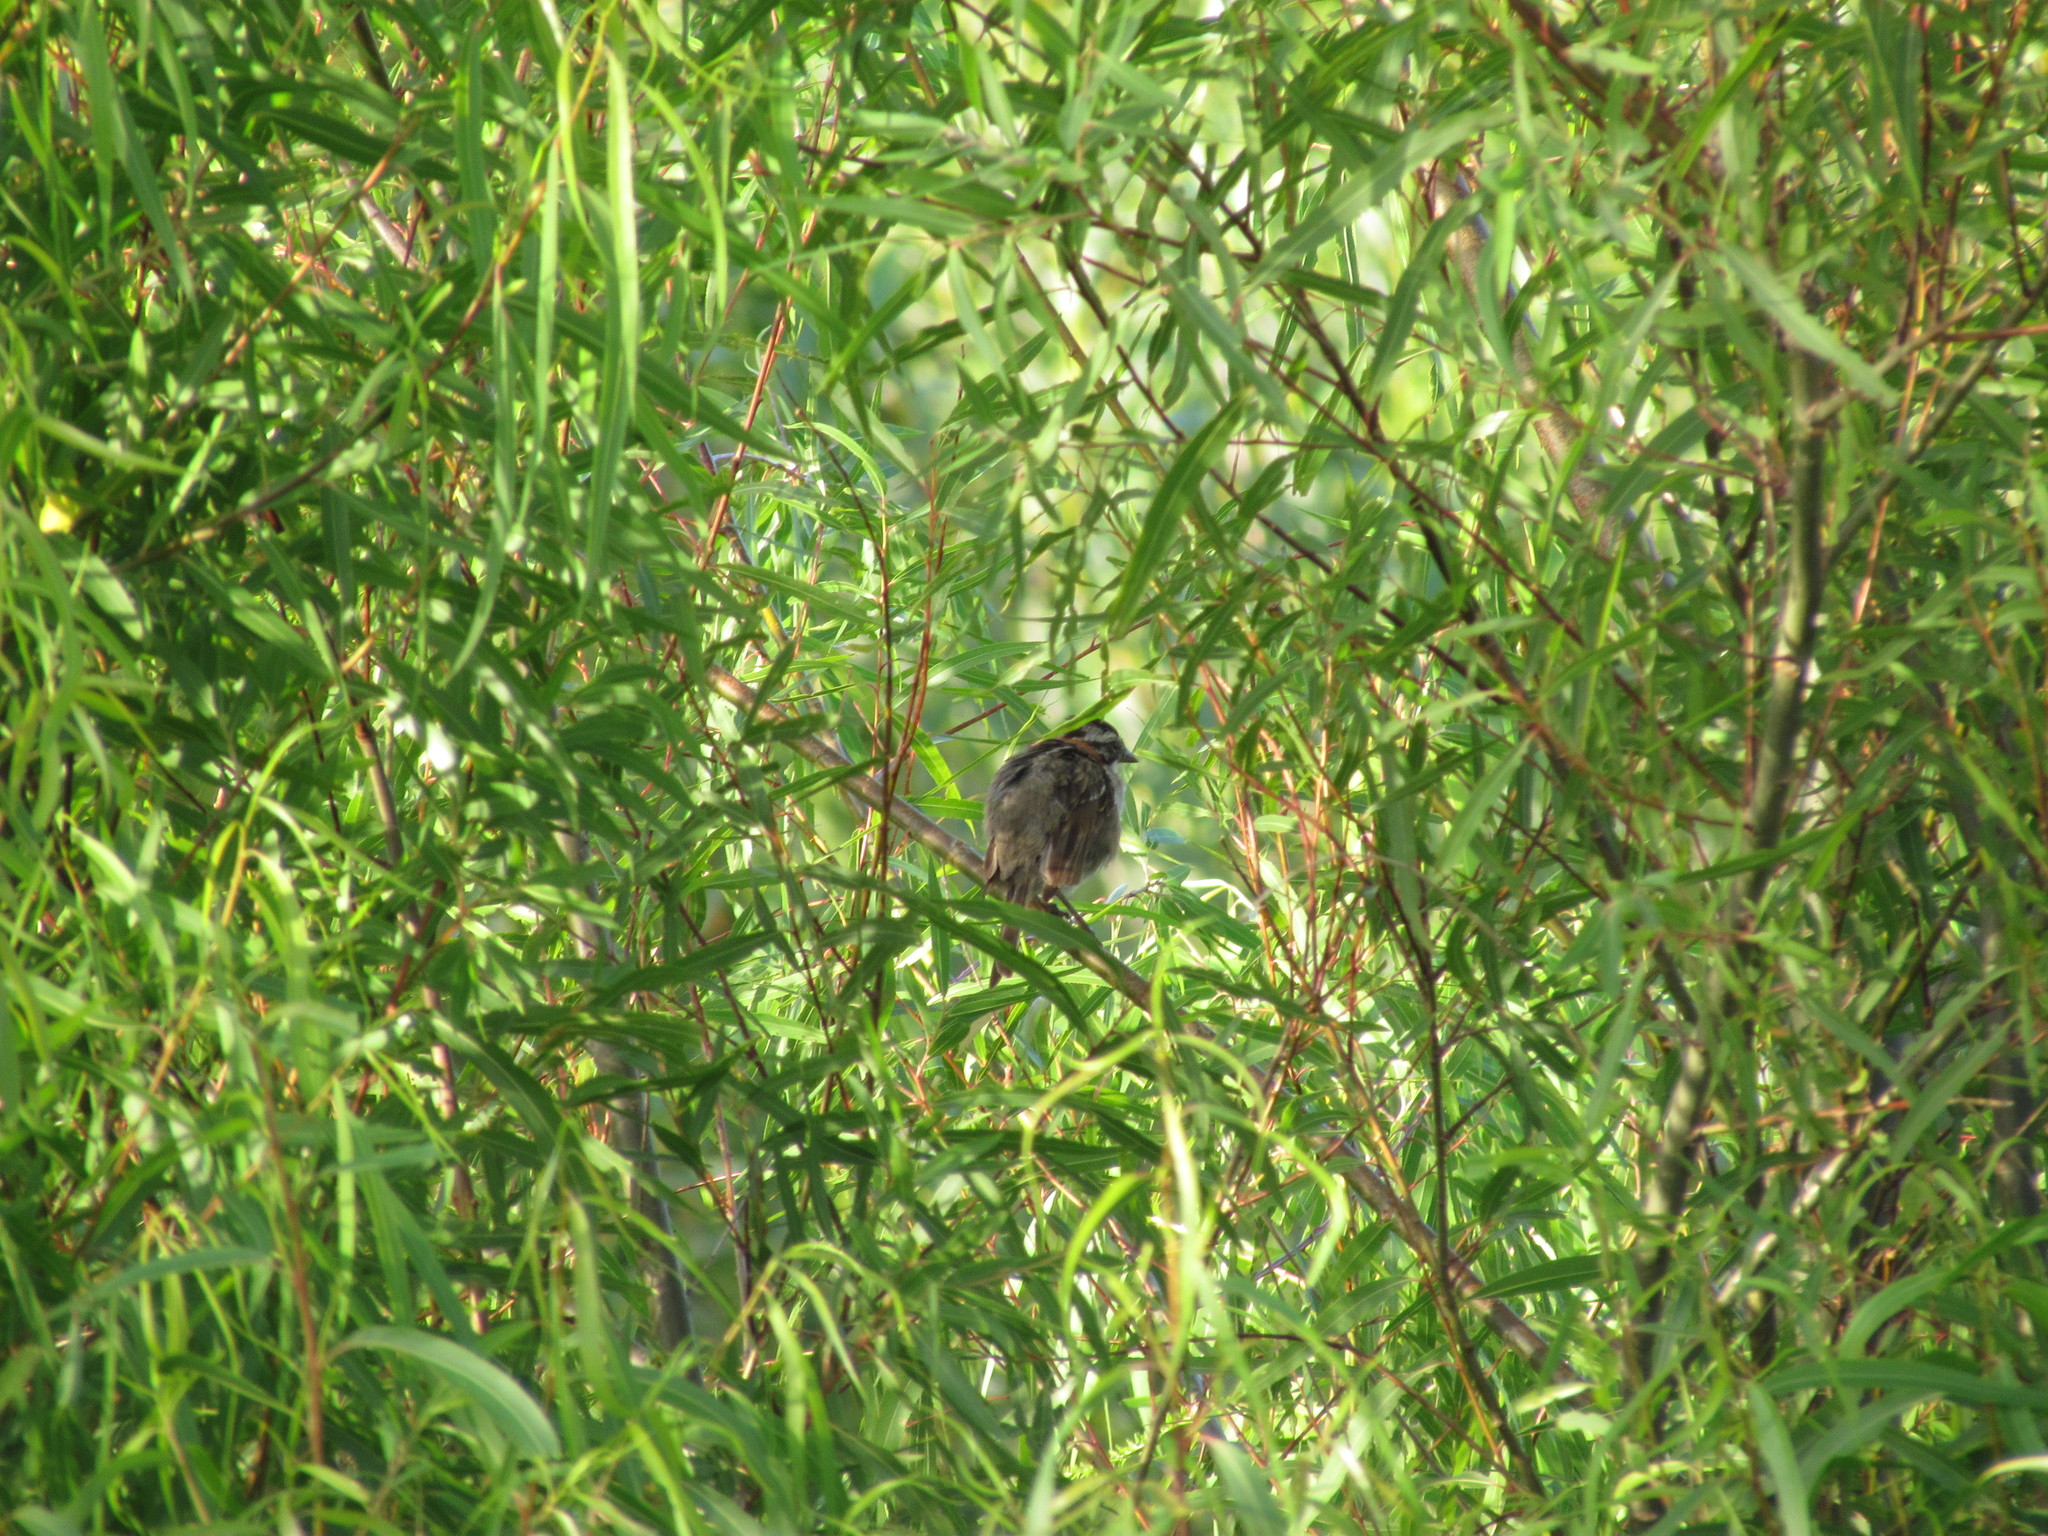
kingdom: Animalia
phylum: Chordata
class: Aves
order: Passeriformes
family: Passerellidae
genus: Zonotrichia
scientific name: Zonotrichia capensis
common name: Rufous-collared sparrow
